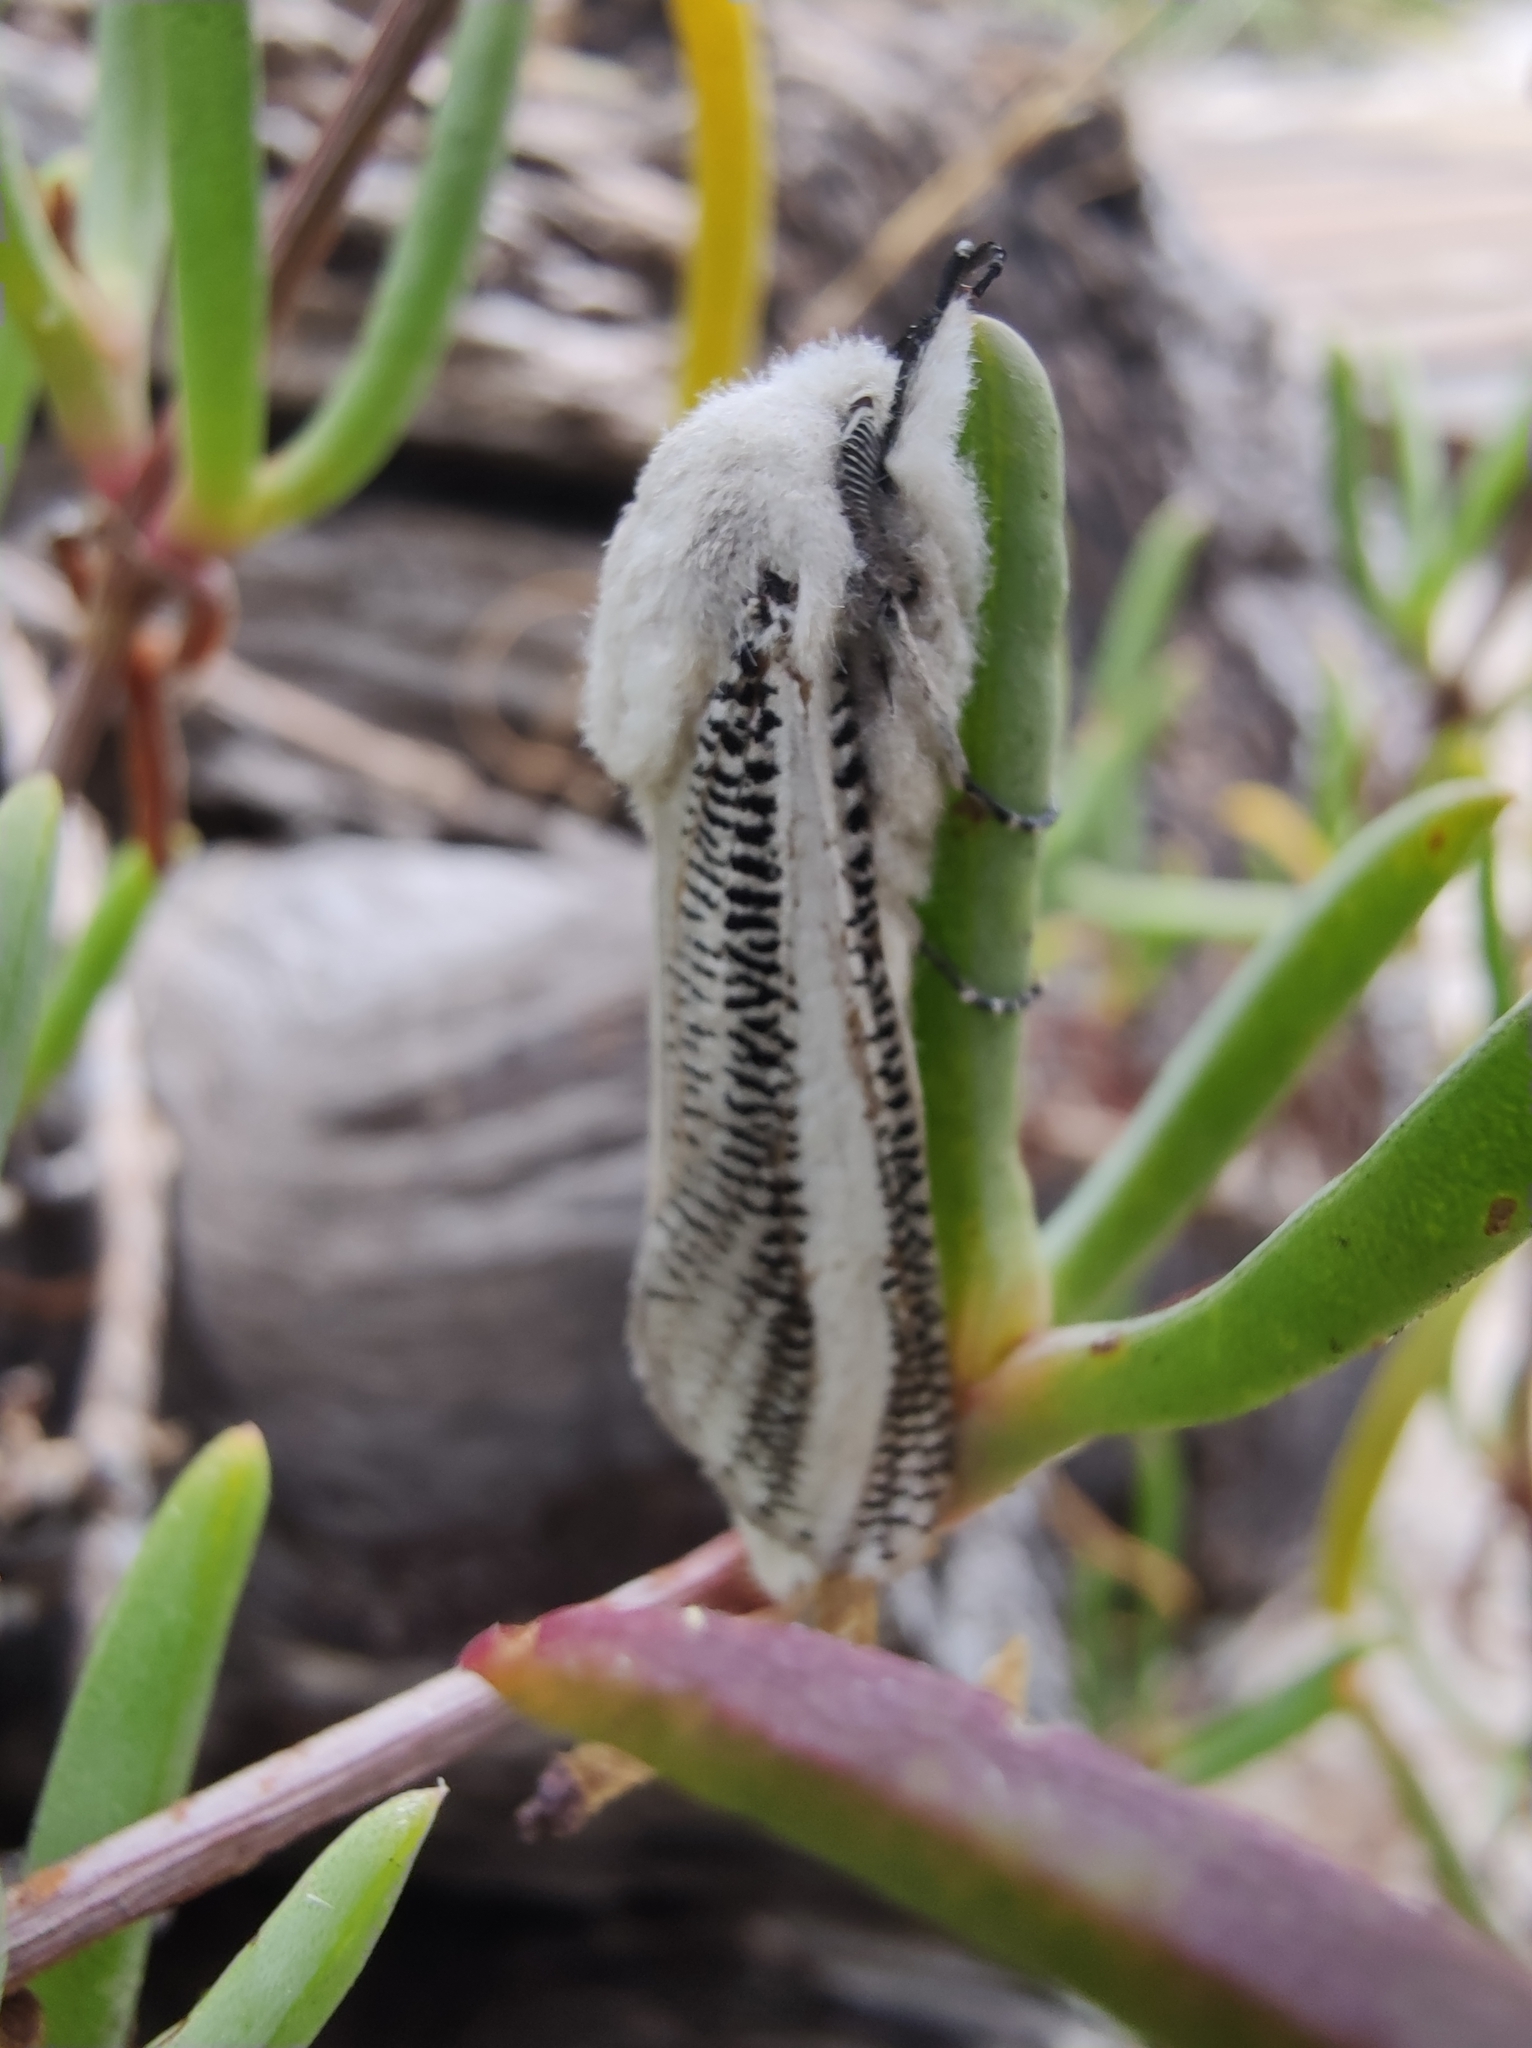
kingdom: Animalia
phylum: Arthropoda
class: Insecta
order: Lepidoptera
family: Cossidae
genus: Azygophleps
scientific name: Azygophleps asylas
